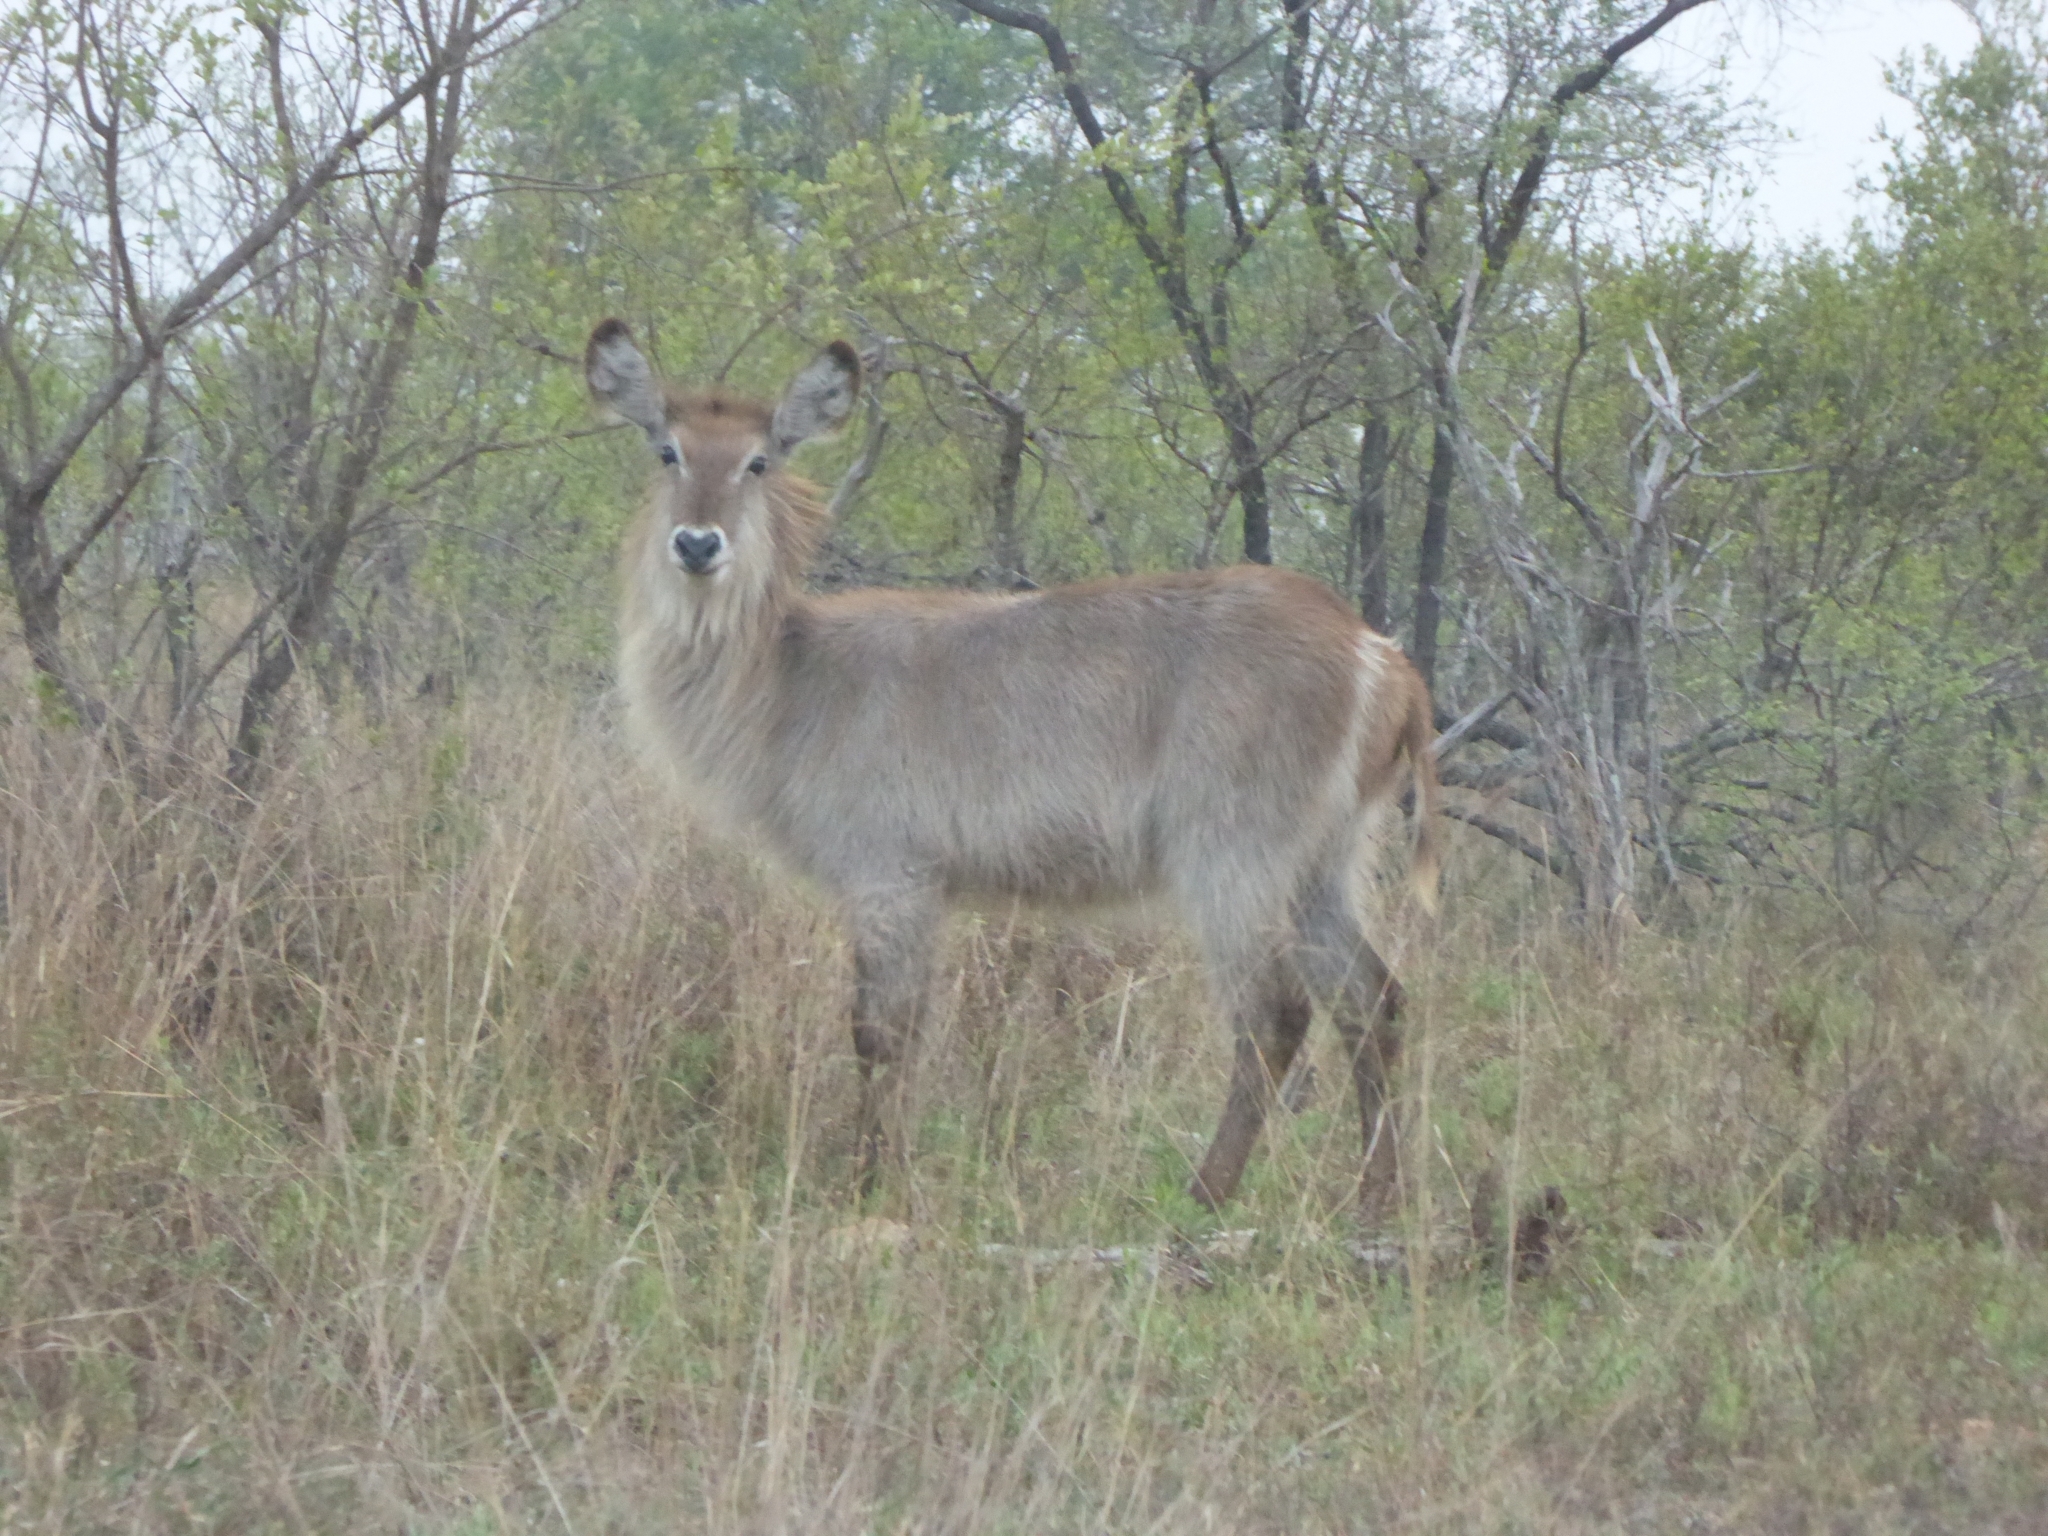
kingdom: Animalia
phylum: Chordata
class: Mammalia
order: Artiodactyla
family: Bovidae
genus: Kobus
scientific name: Kobus ellipsiprymnus
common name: Waterbuck
